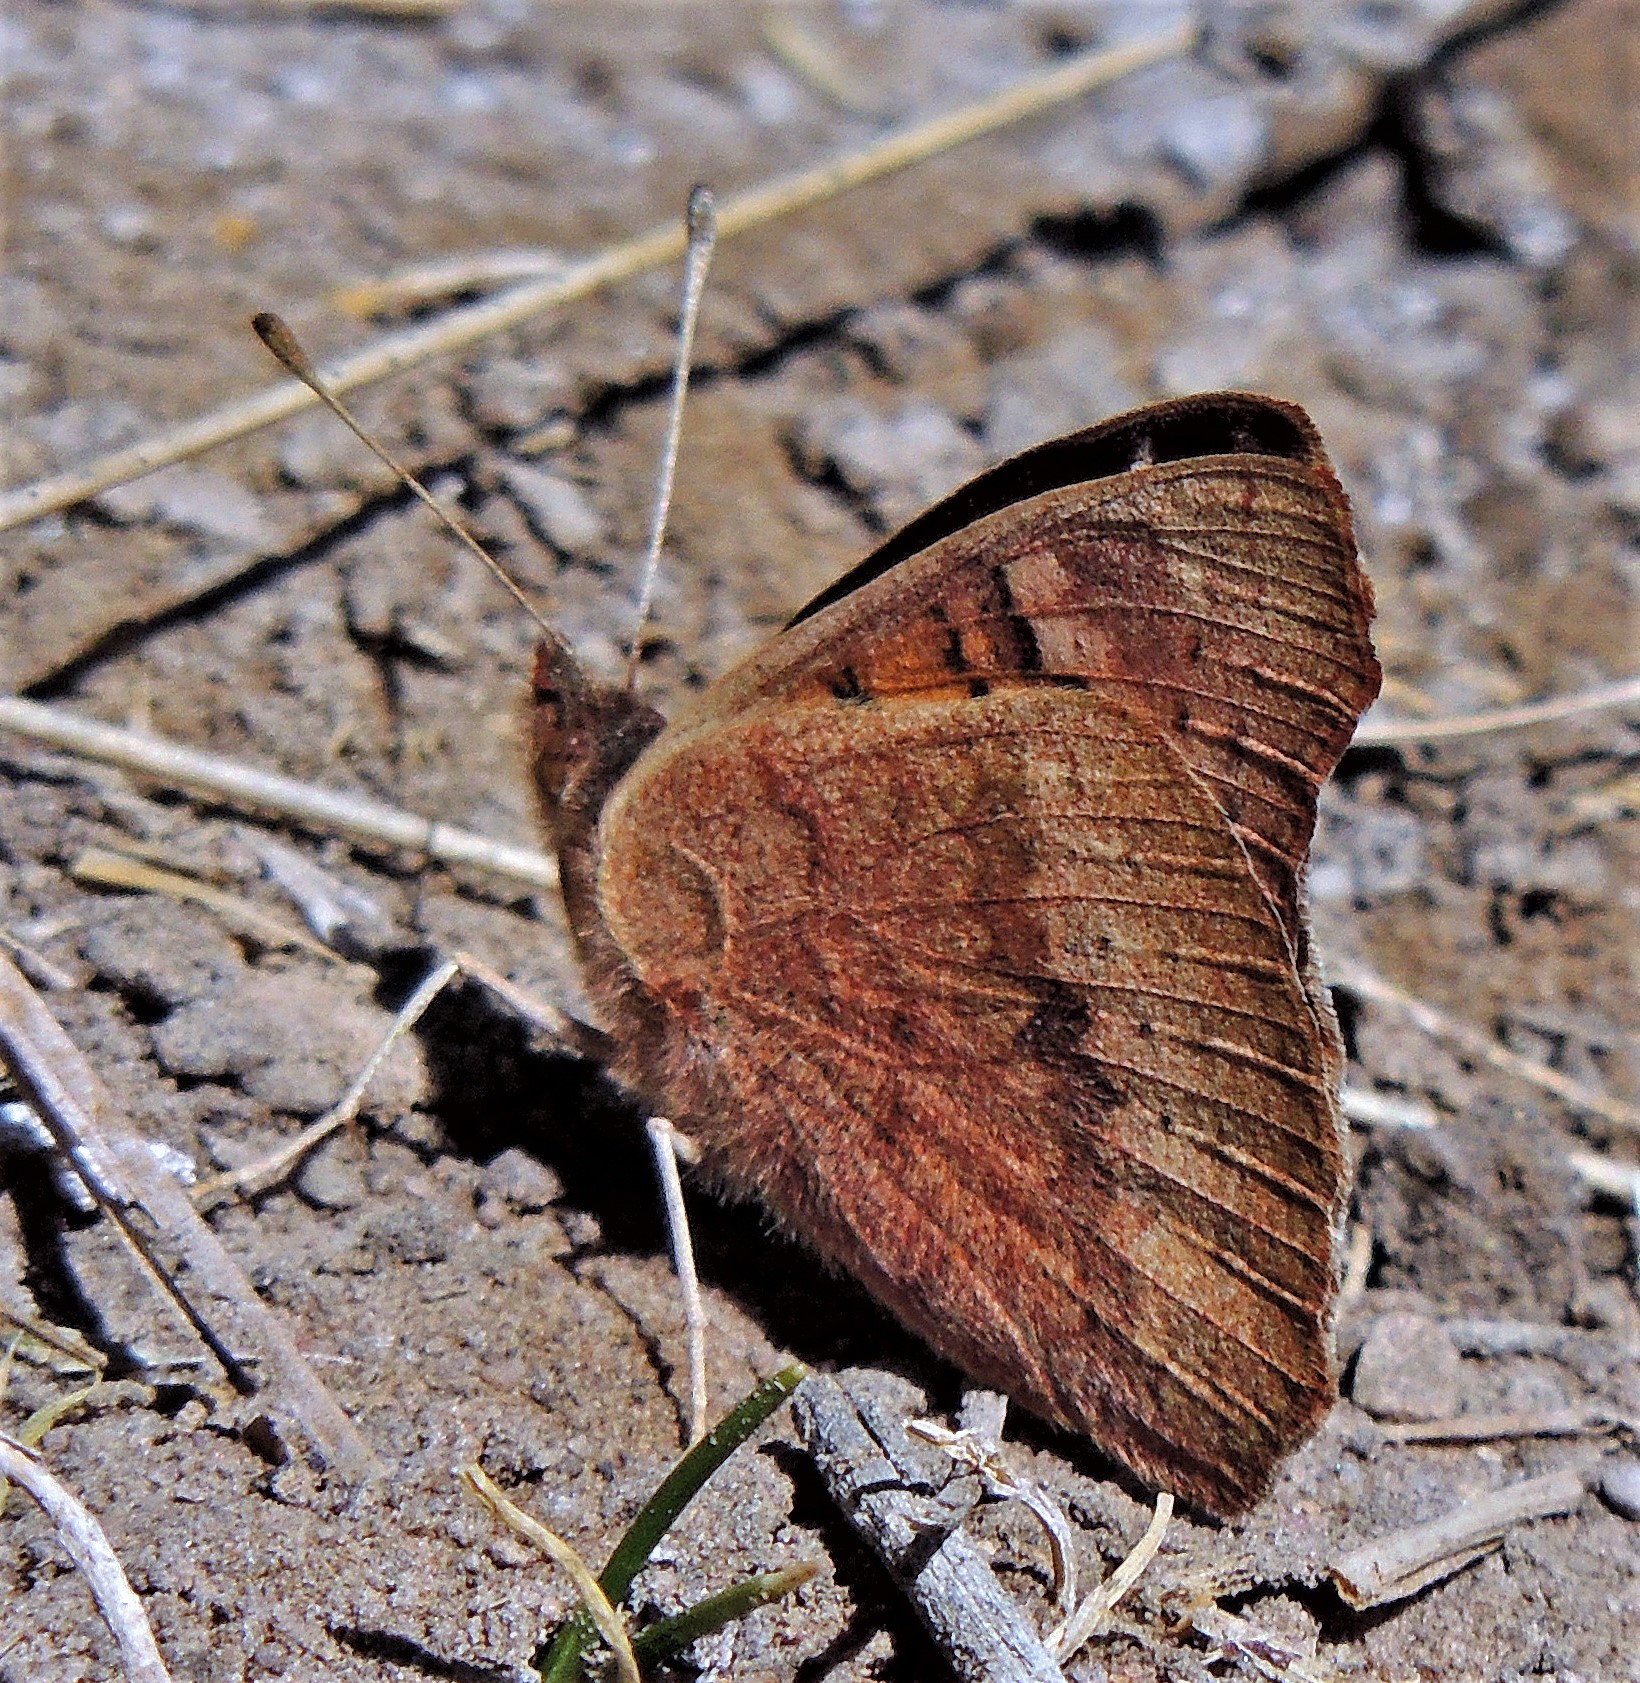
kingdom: Animalia
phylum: Arthropoda
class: Insecta
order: Lepidoptera
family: Nymphalidae
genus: Junonia
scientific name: Junonia vestina
